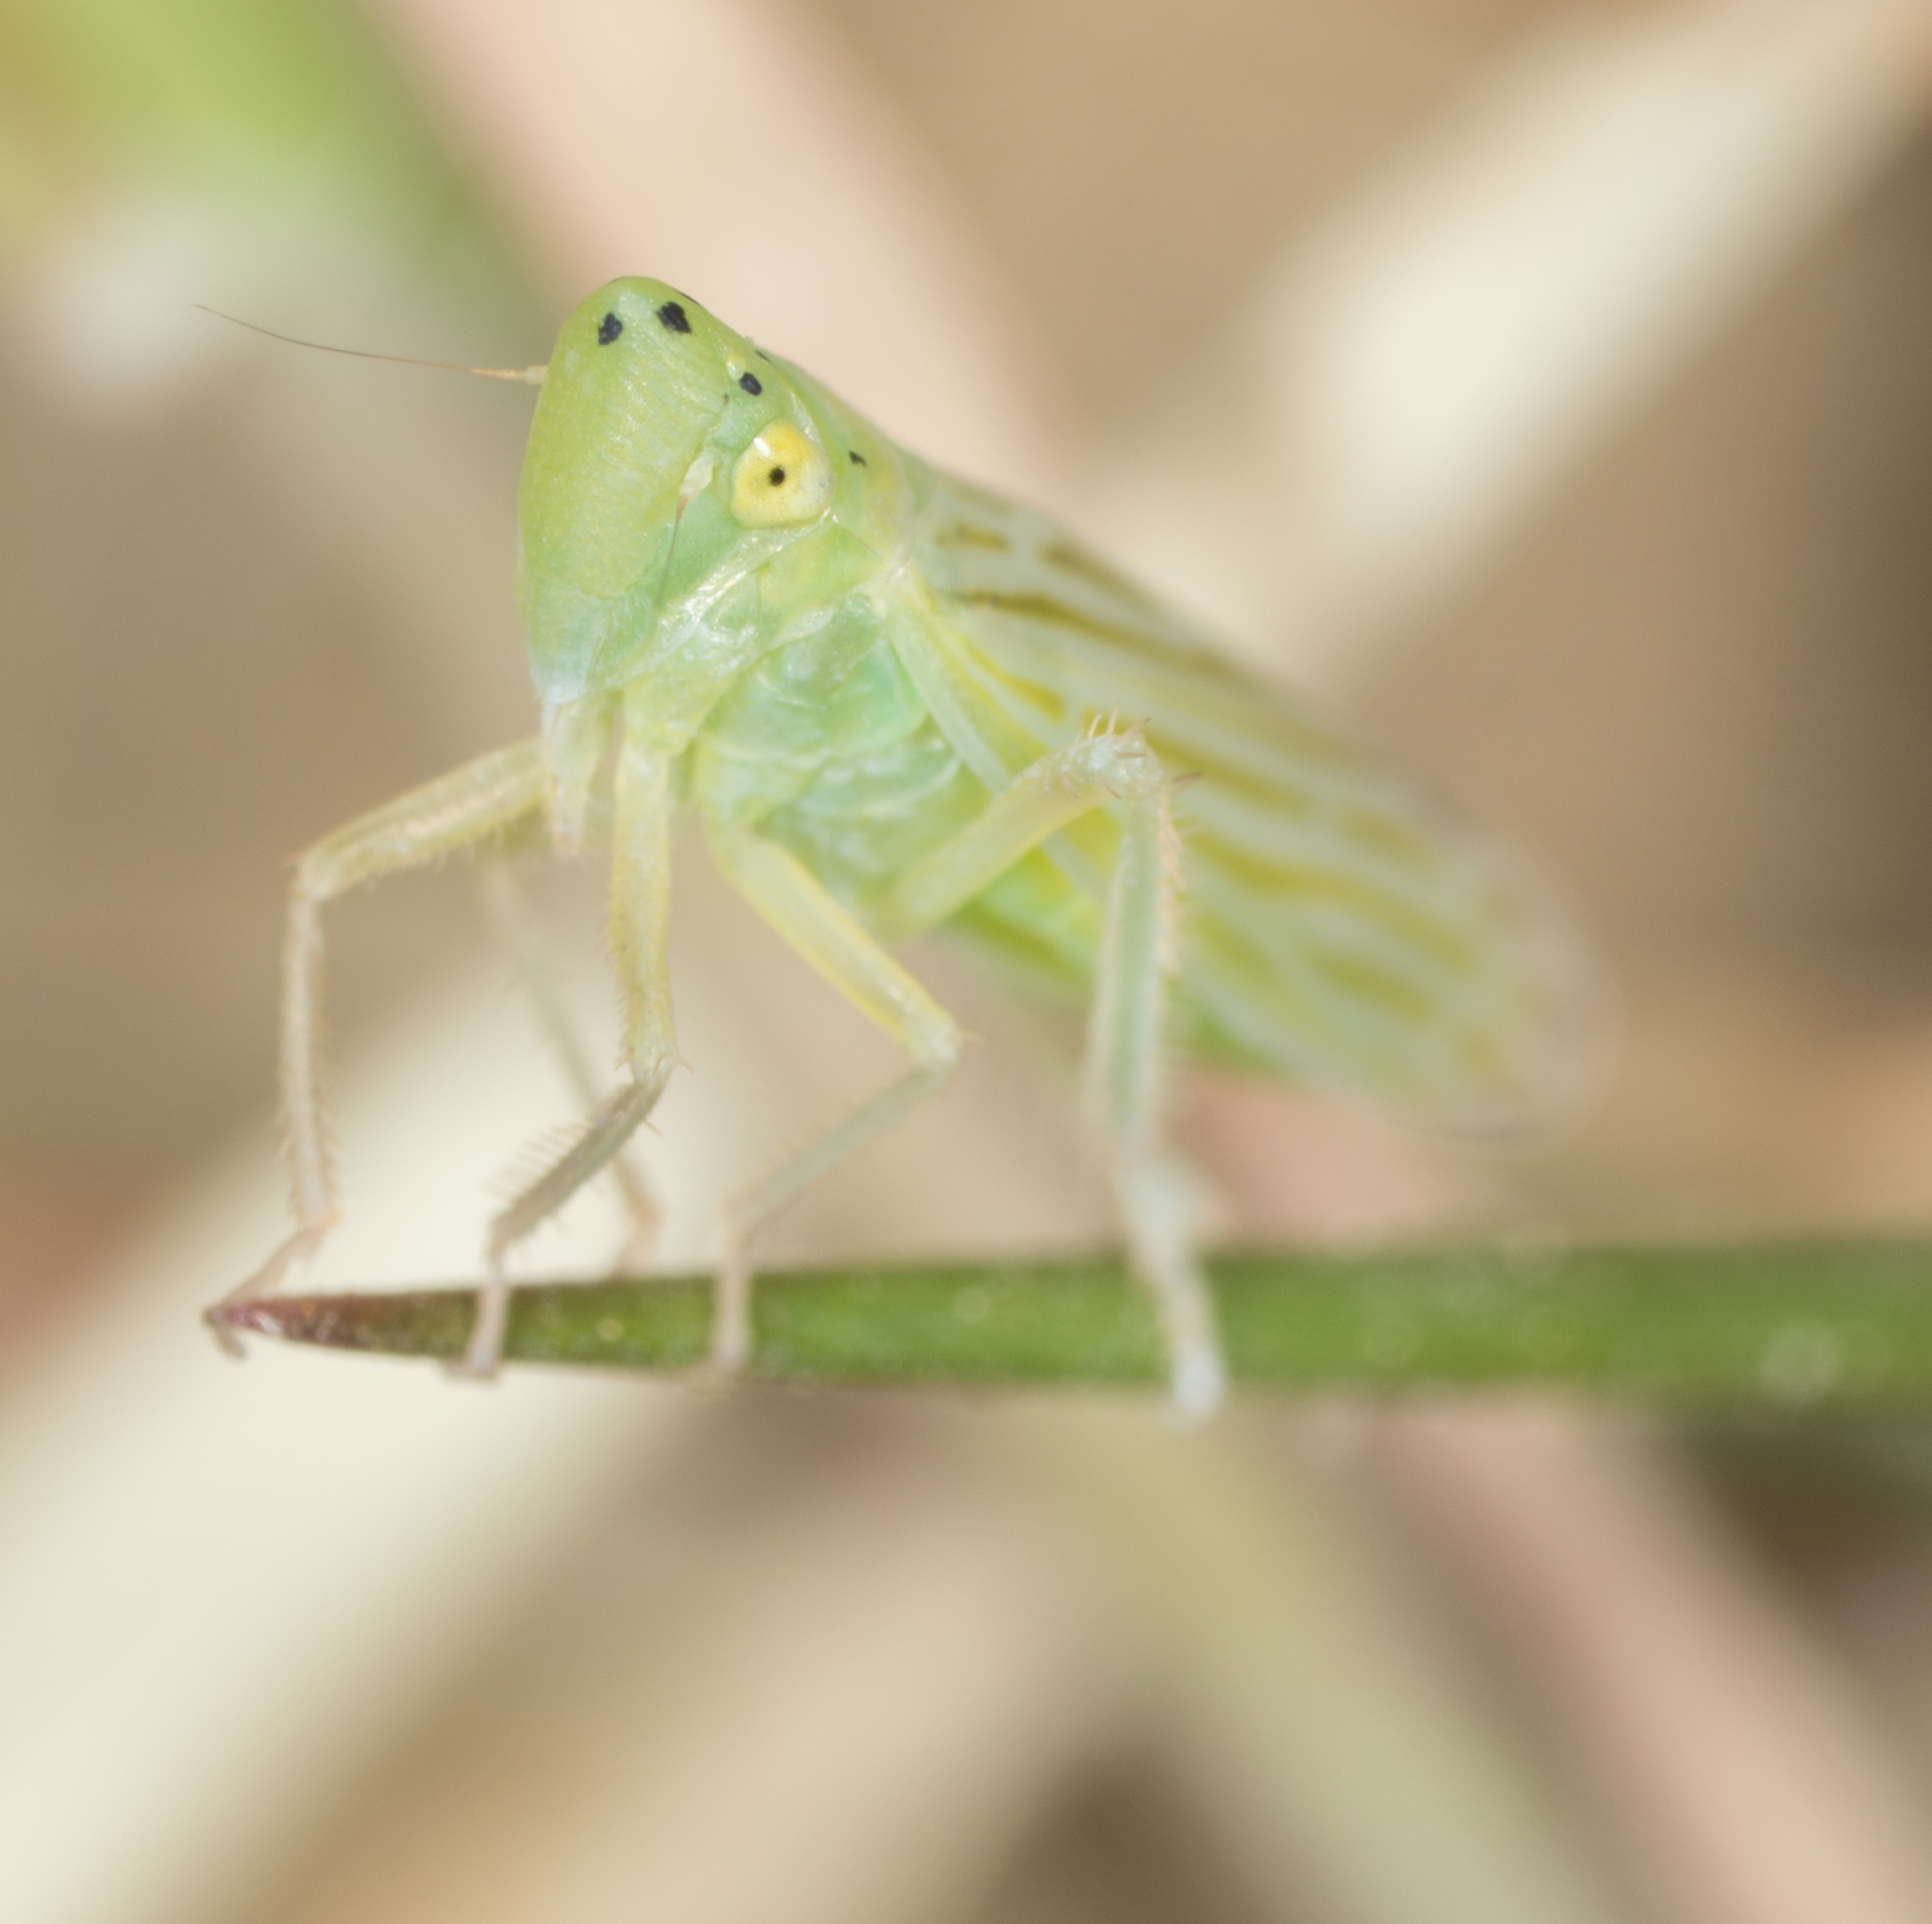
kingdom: Animalia
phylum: Arthropoda
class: Insecta
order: Hemiptera
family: Cicadellidae
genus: Pagaronia
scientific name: Pagaronia tredecimpunctata
